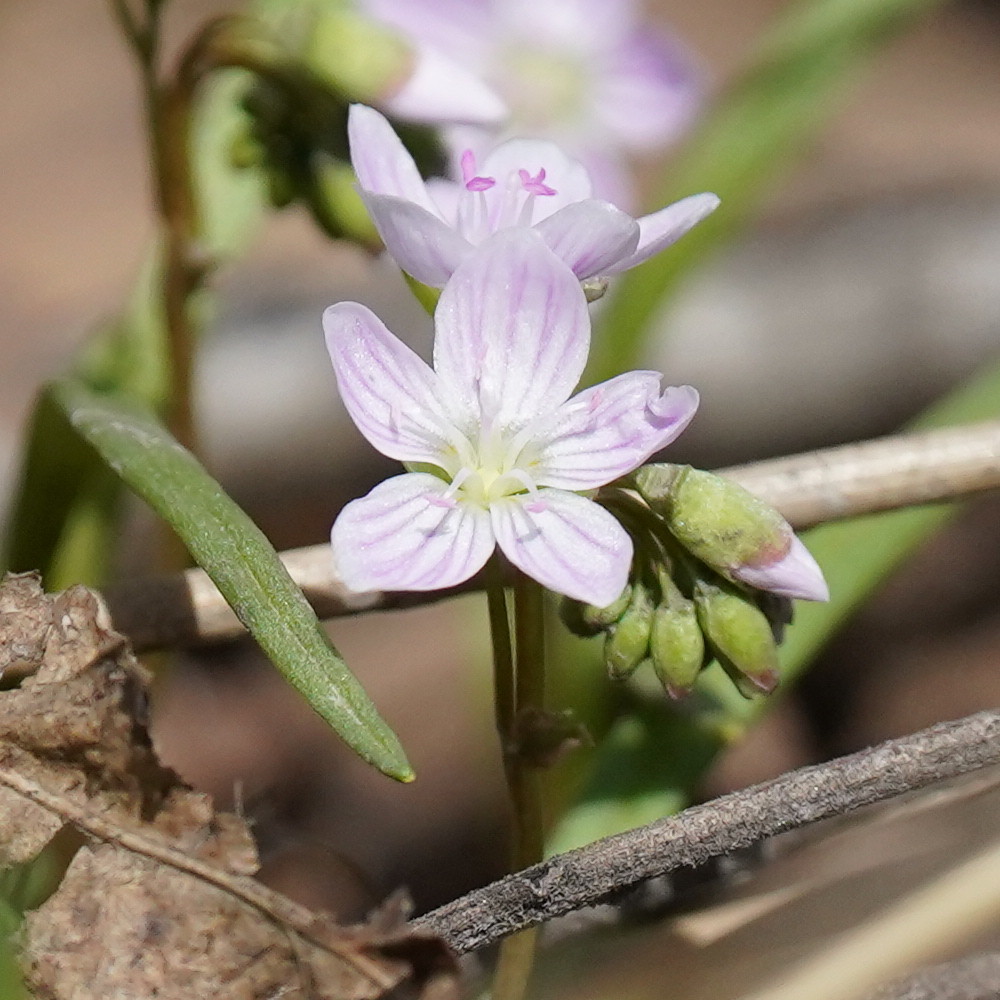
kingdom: Plantae
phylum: Tracheophyta
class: Magnoliopsida
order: Caryophyllales
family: Montiaceae
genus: Claytonia
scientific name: Claytonia virginica
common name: Virginia springbeauty
